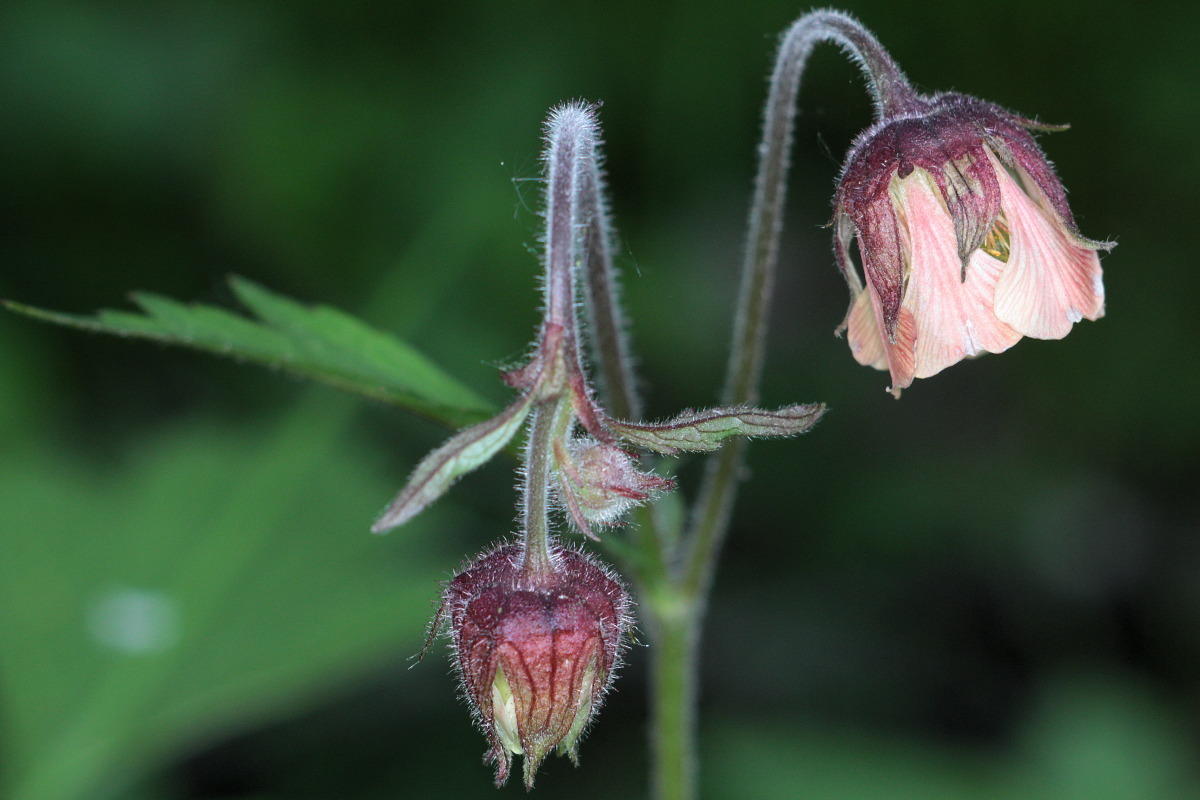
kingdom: Plantae
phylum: Tracheophyta
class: Magnoliopsida
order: Rosales
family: Rosaceae
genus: Geum
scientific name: Geum rivale
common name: Water avens
